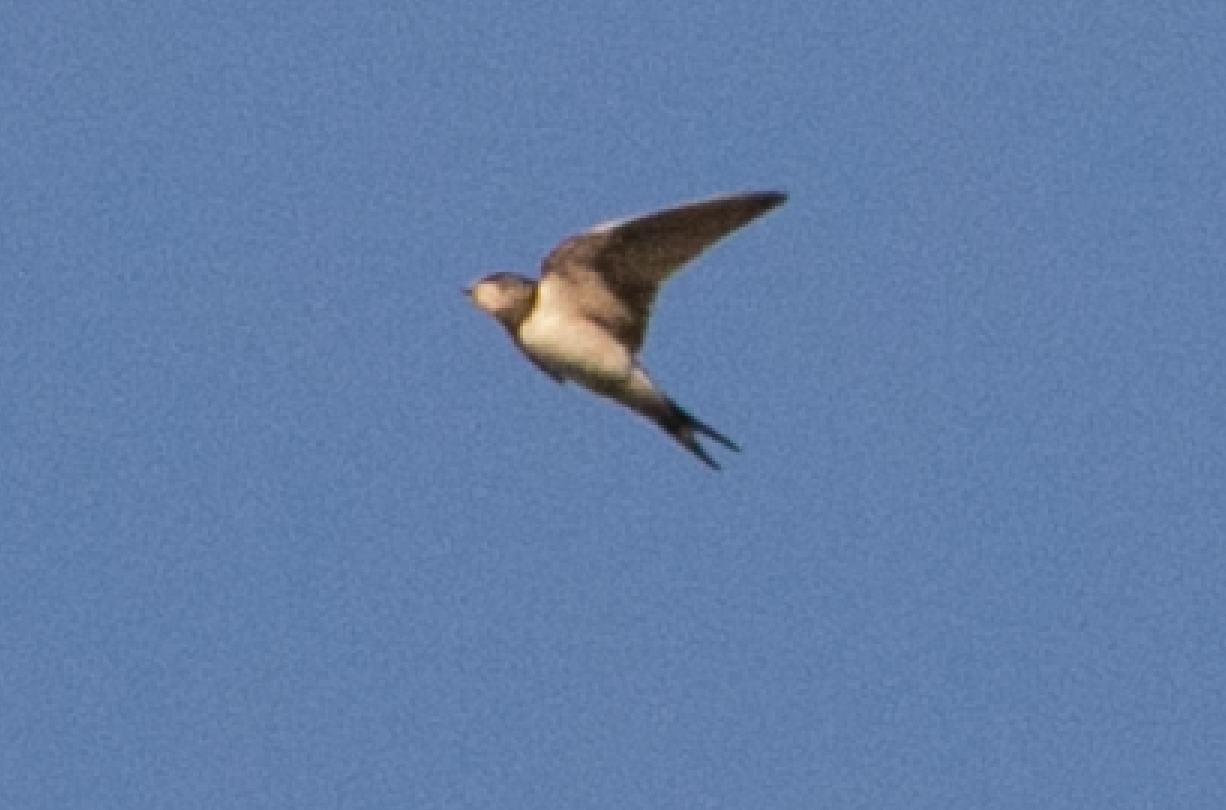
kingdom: Animalia
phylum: Chordata
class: Aves
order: Passeriformes
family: Hirundinidae
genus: Hirundo
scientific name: Hirundo rustica
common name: Barn swallow
